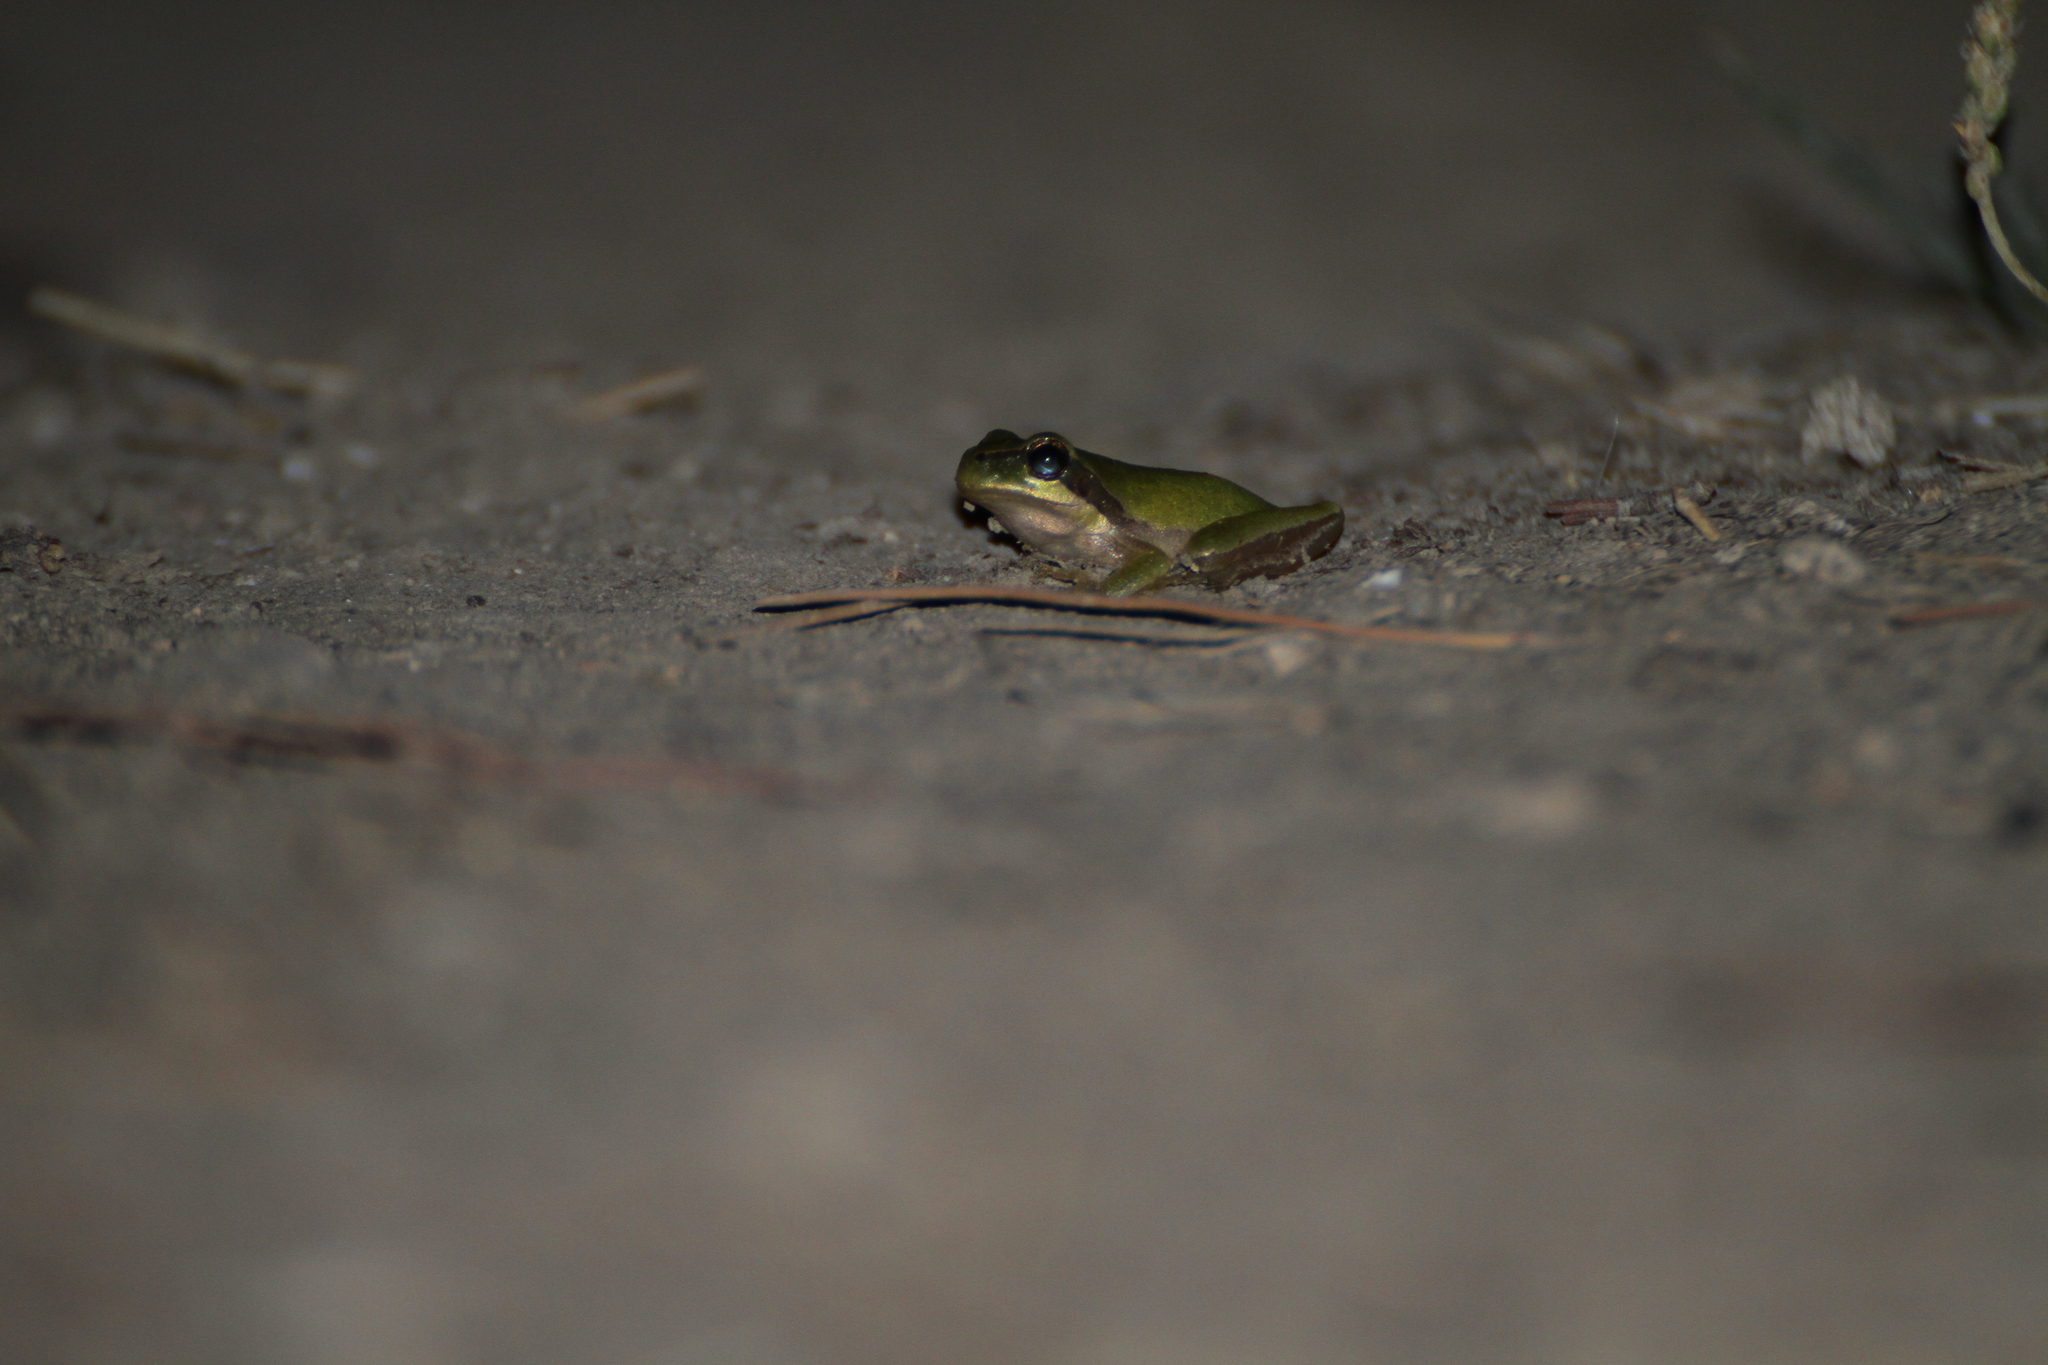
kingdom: Animalia
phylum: Chordata
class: Amphibia
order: Anura
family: Hylidae
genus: Hyla
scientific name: Hyla meridionalis
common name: Stripeless tree frog
